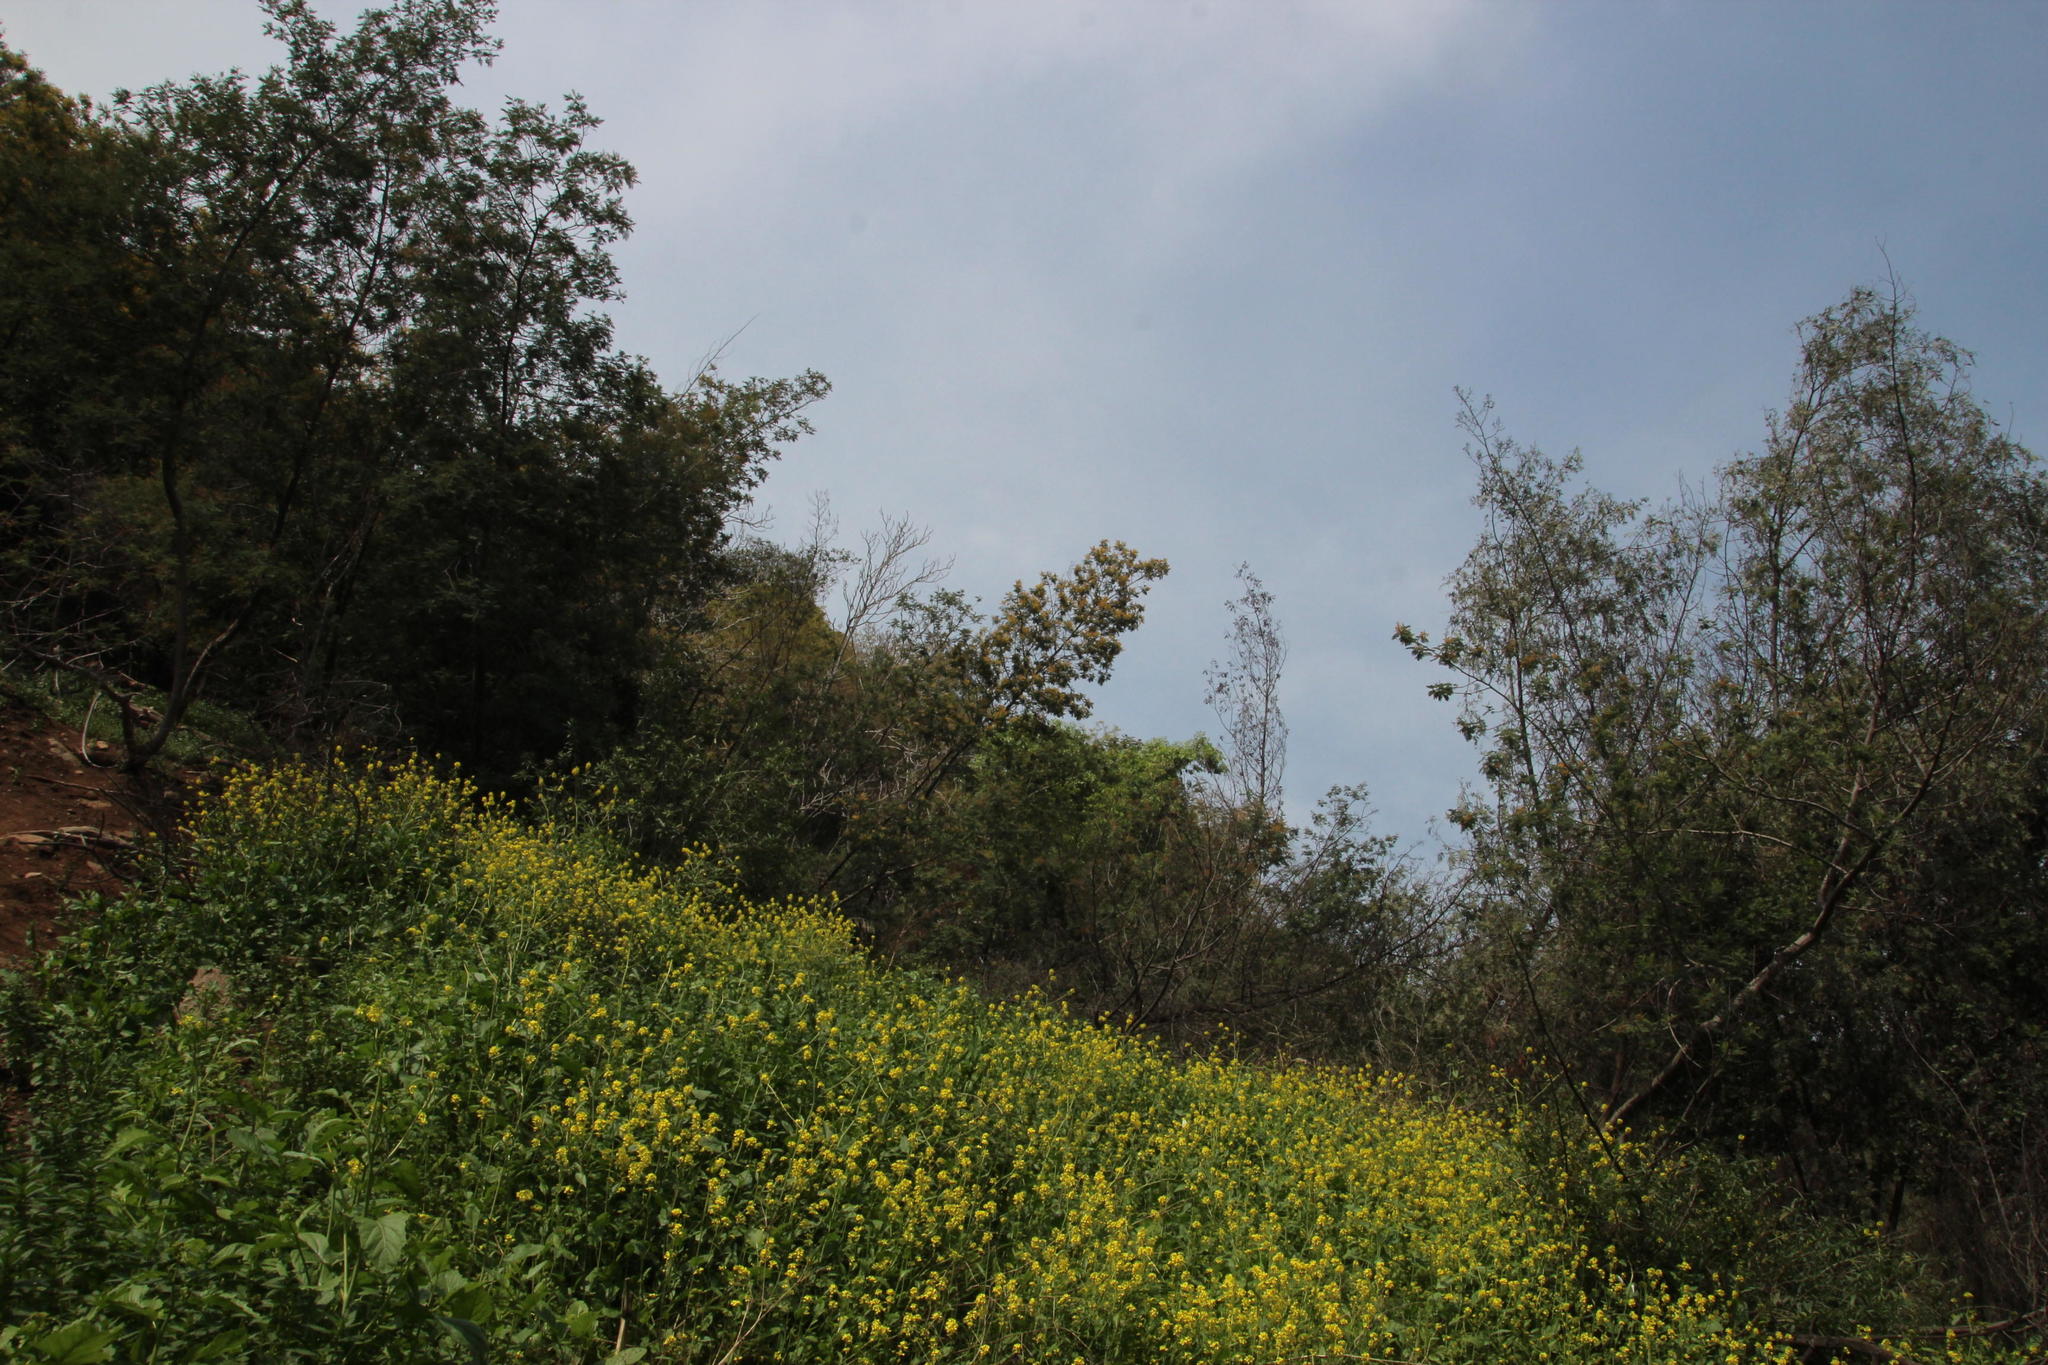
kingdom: Plantae
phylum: Tracheophyta
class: Magnoliopsida
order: Fabales
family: Fabaceae
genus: Acacia
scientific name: Acacia dealbata
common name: Silver wattle
